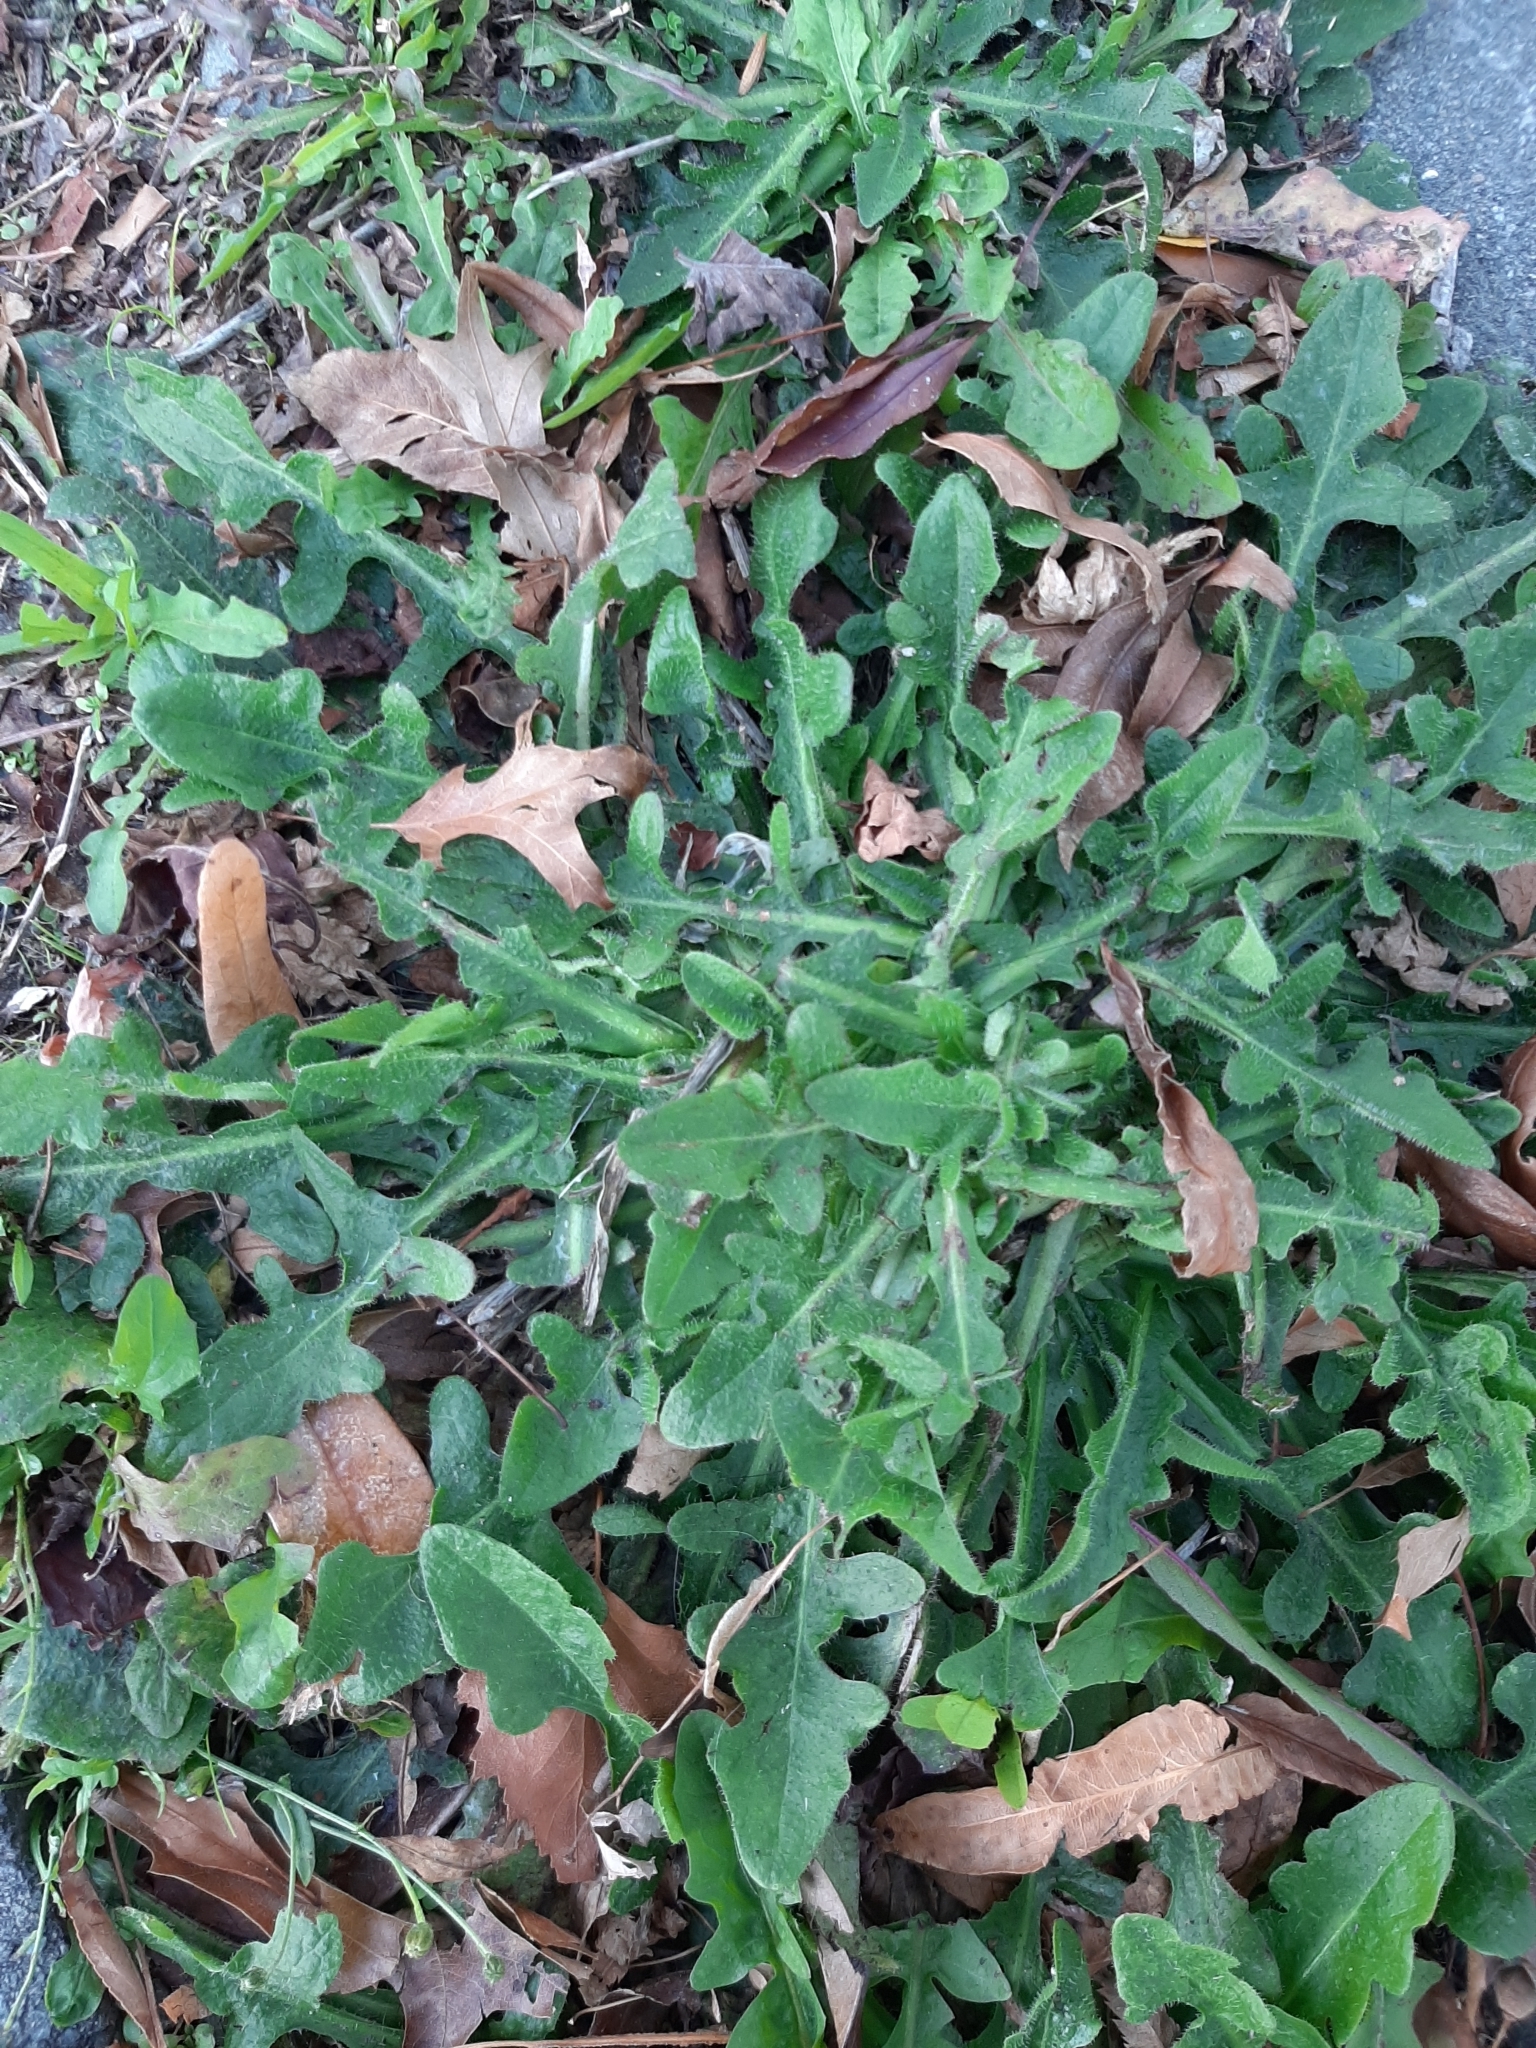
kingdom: Plantae
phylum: Tracheophyta
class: Magnoliopsida
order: Asterales
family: Asteraceae
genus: Hypochaeris
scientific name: Hypochaeris radicata
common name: Flatweed
